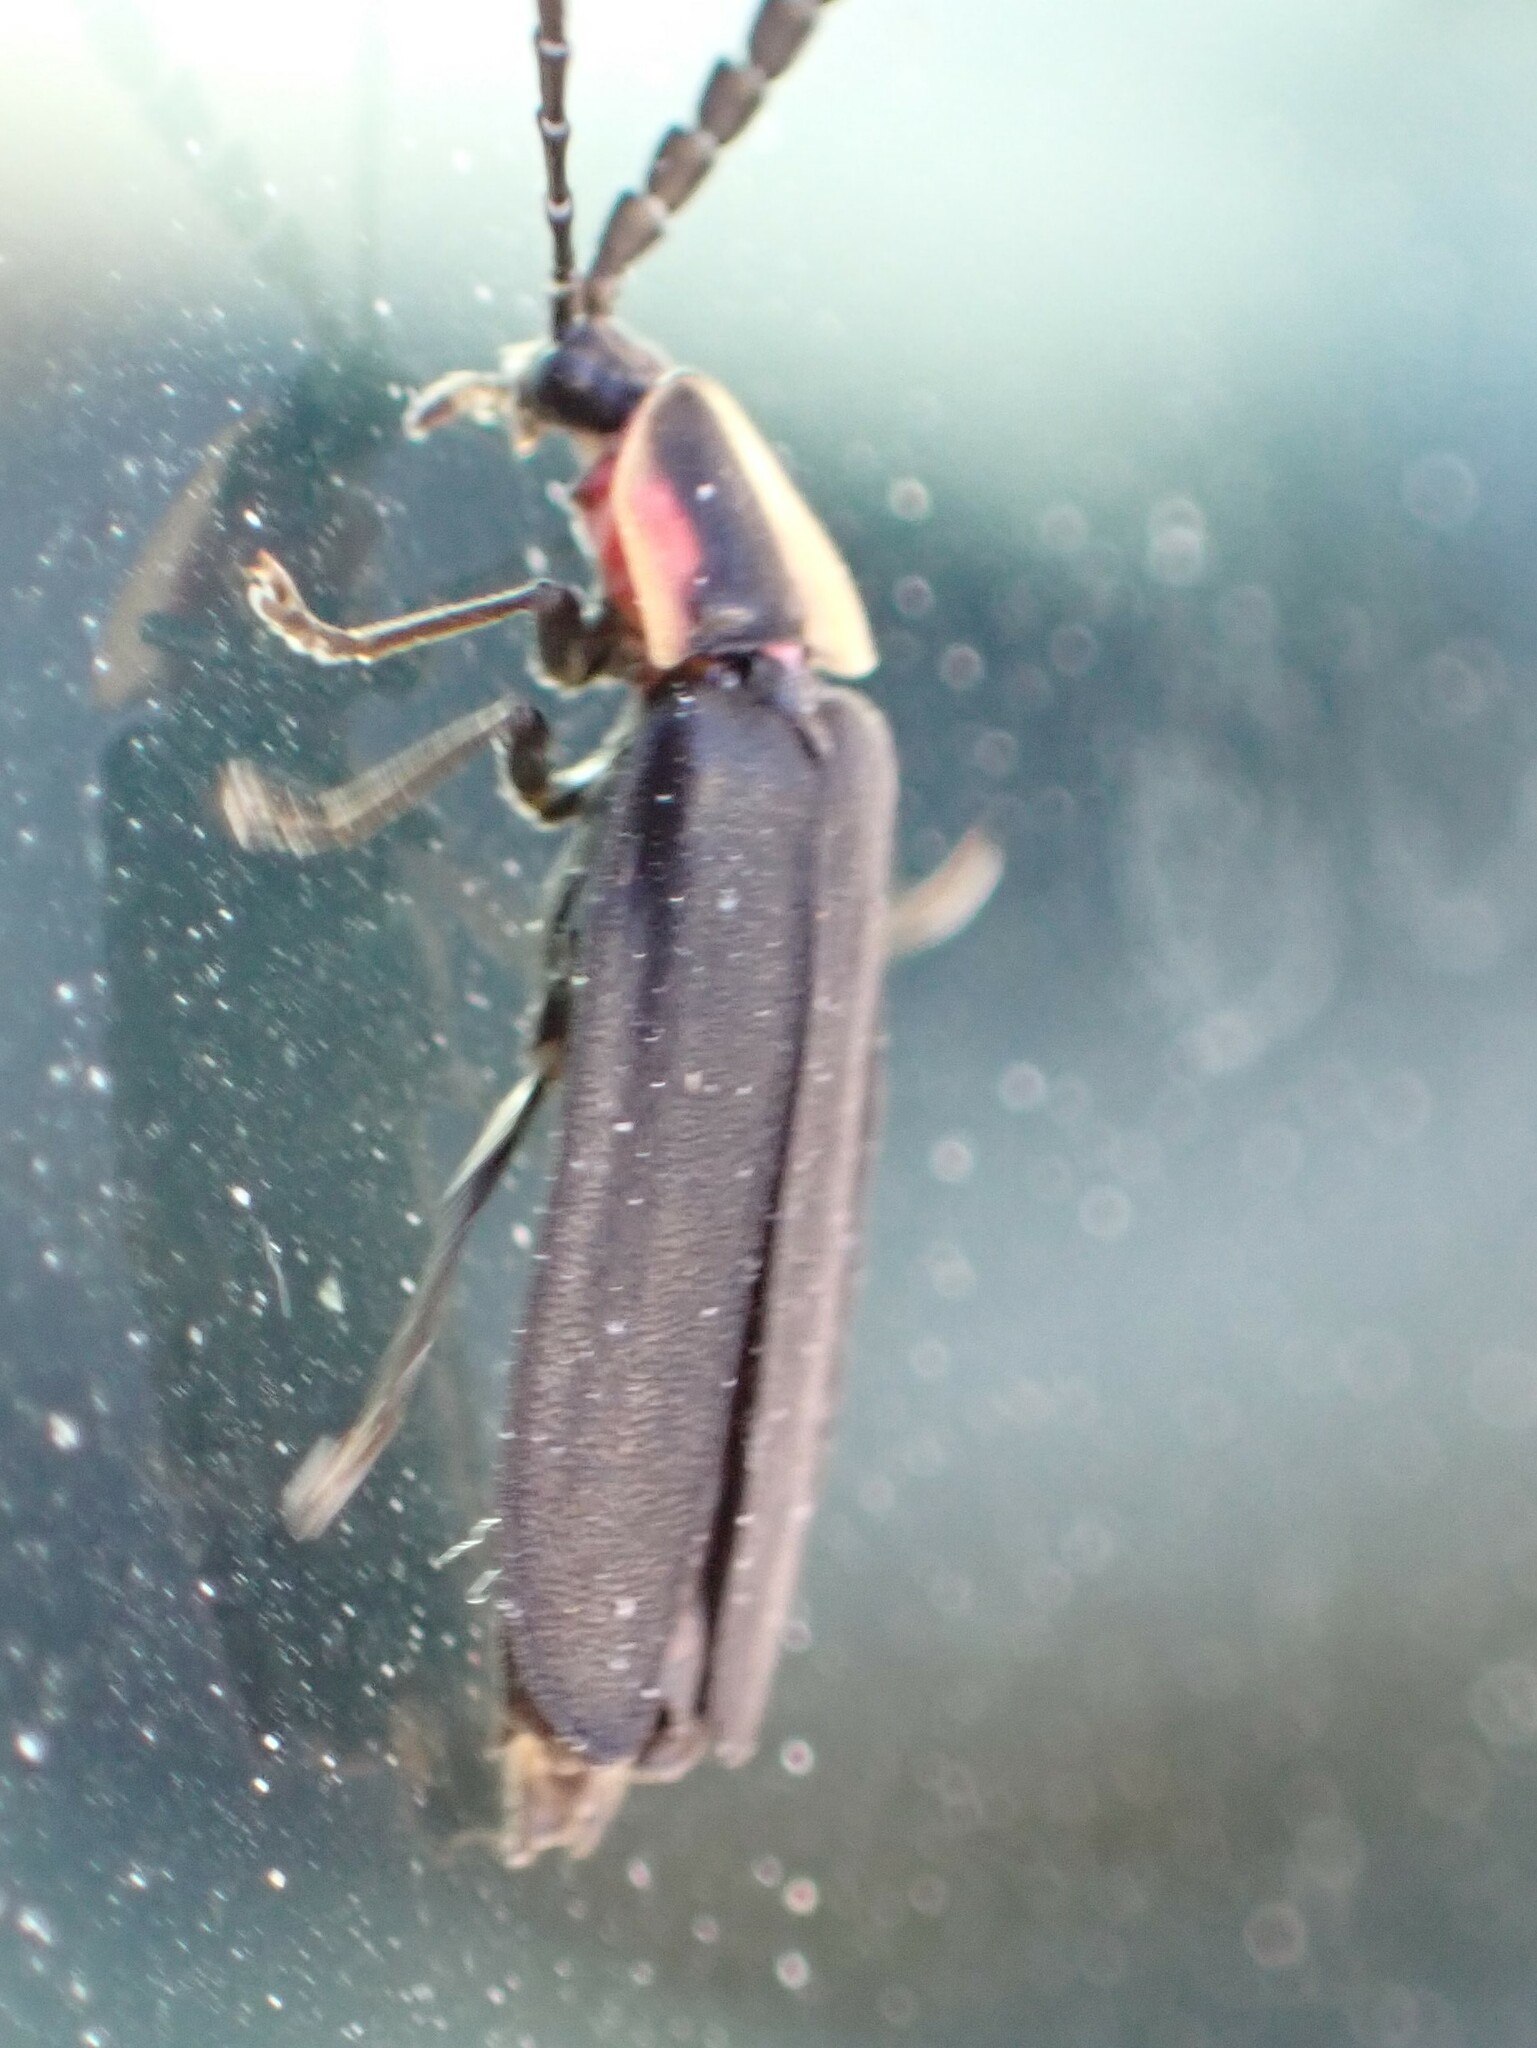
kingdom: Animalia
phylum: Arthropoda
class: Insecta
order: Coleoptera
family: Lampyridae
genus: Lucidota
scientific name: Lucidota atra
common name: Black firefly
